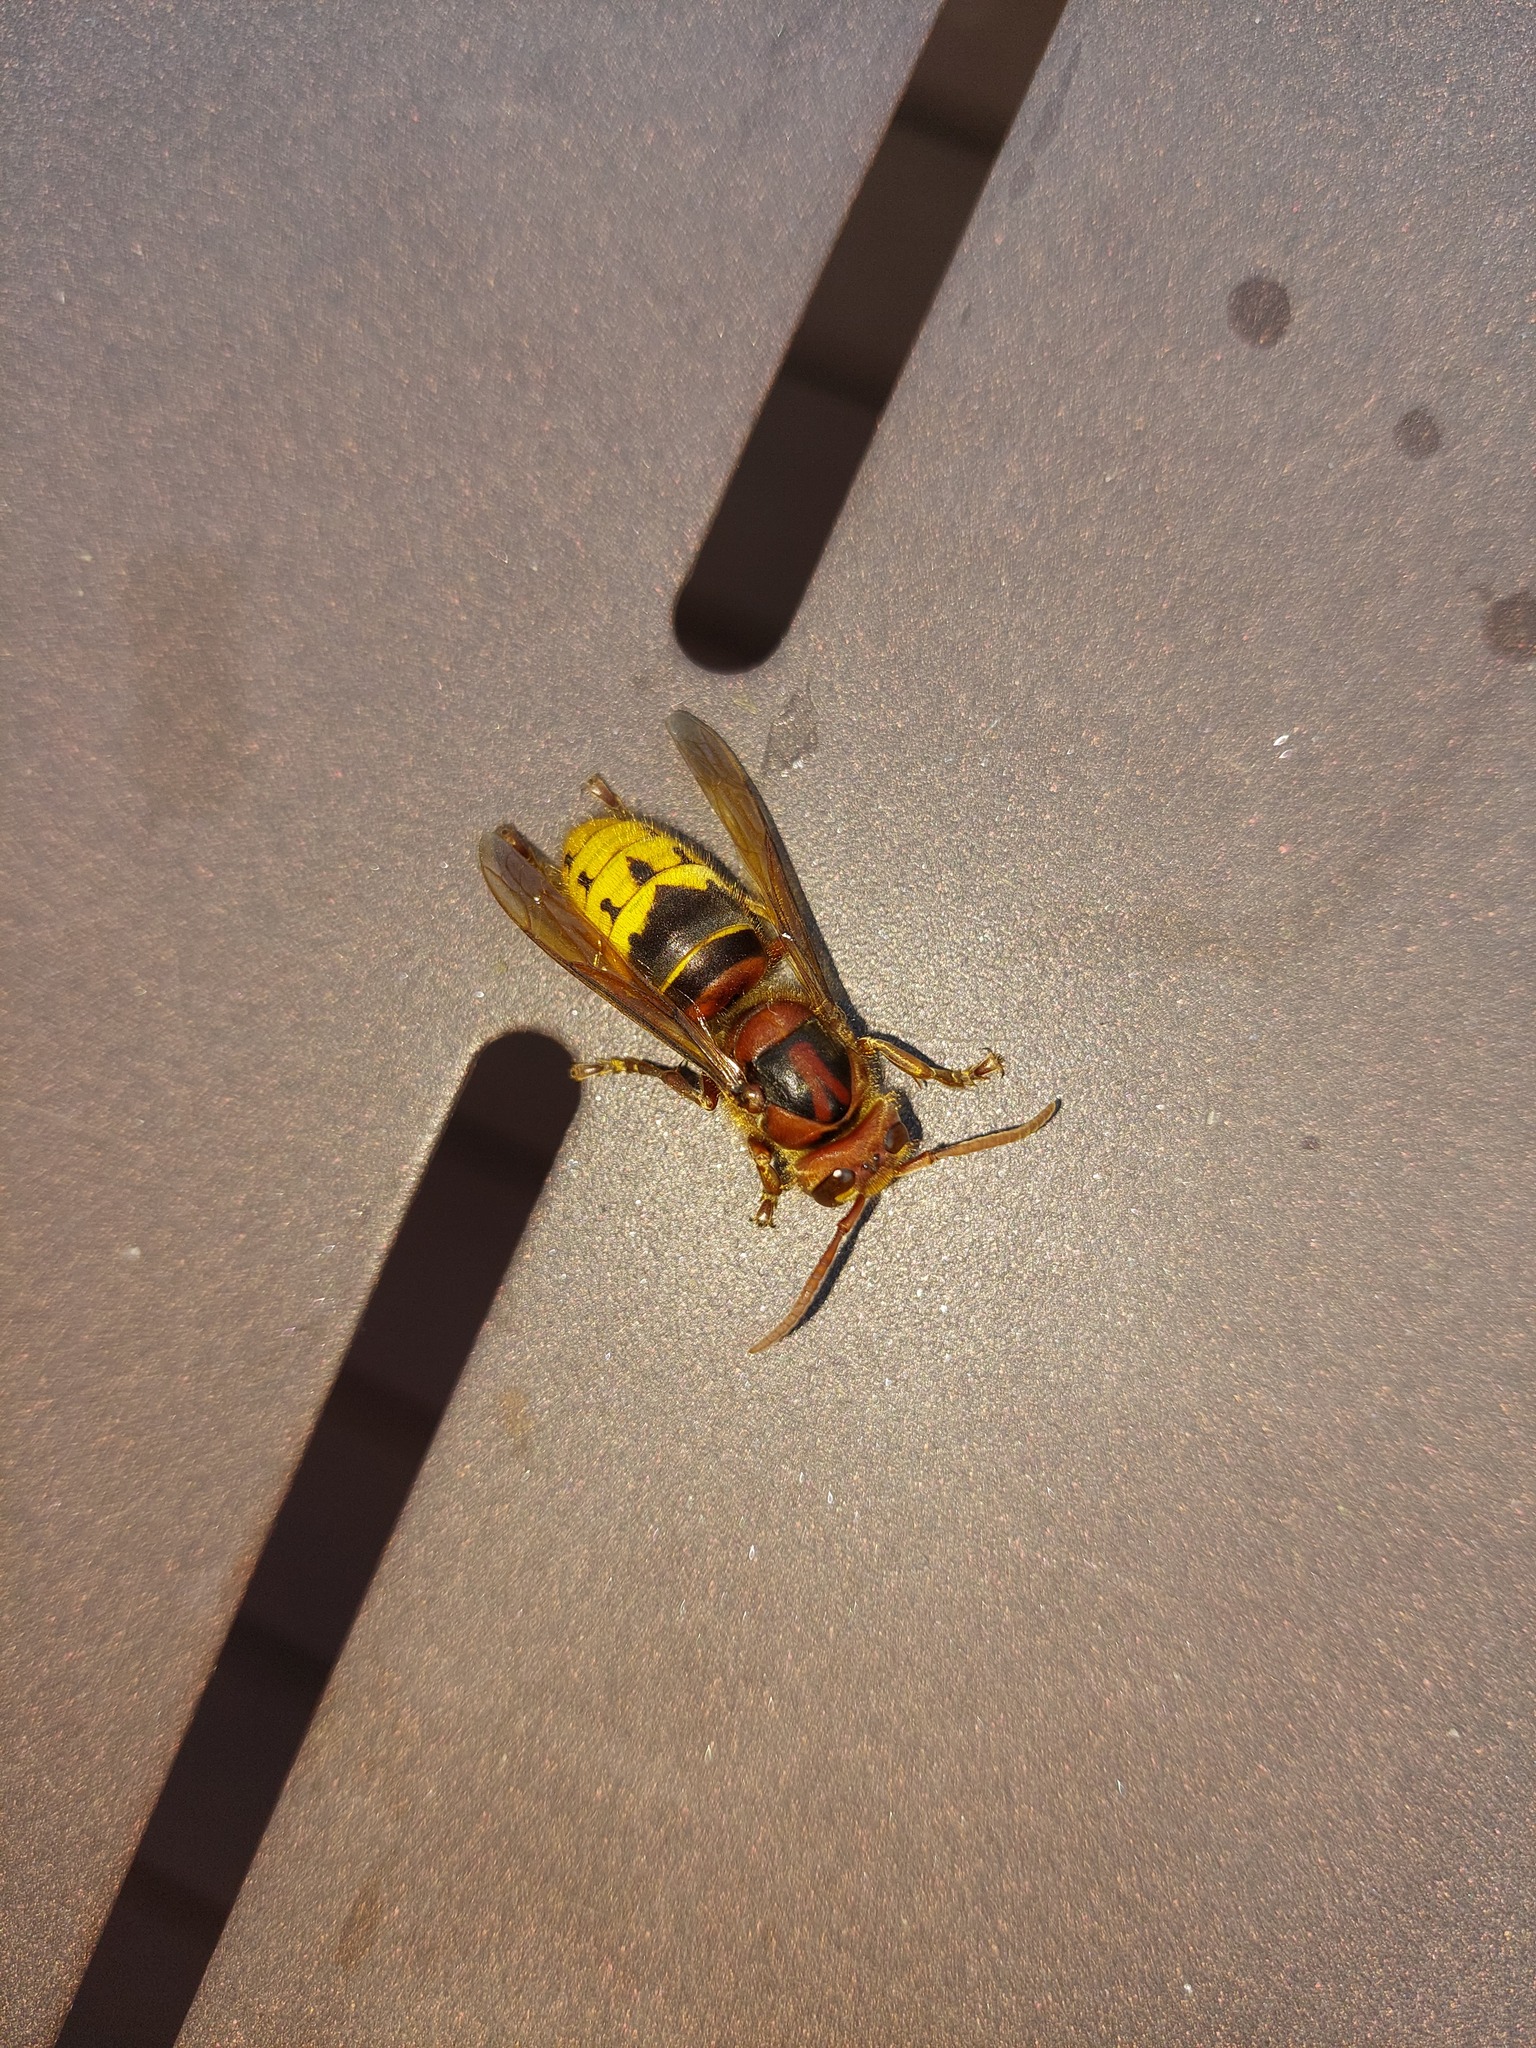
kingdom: Animalia
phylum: Arthropoda
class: Insecta
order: Hymenoptera
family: Vespidae
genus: Vespa
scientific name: Vespa crabro
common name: Hornet
